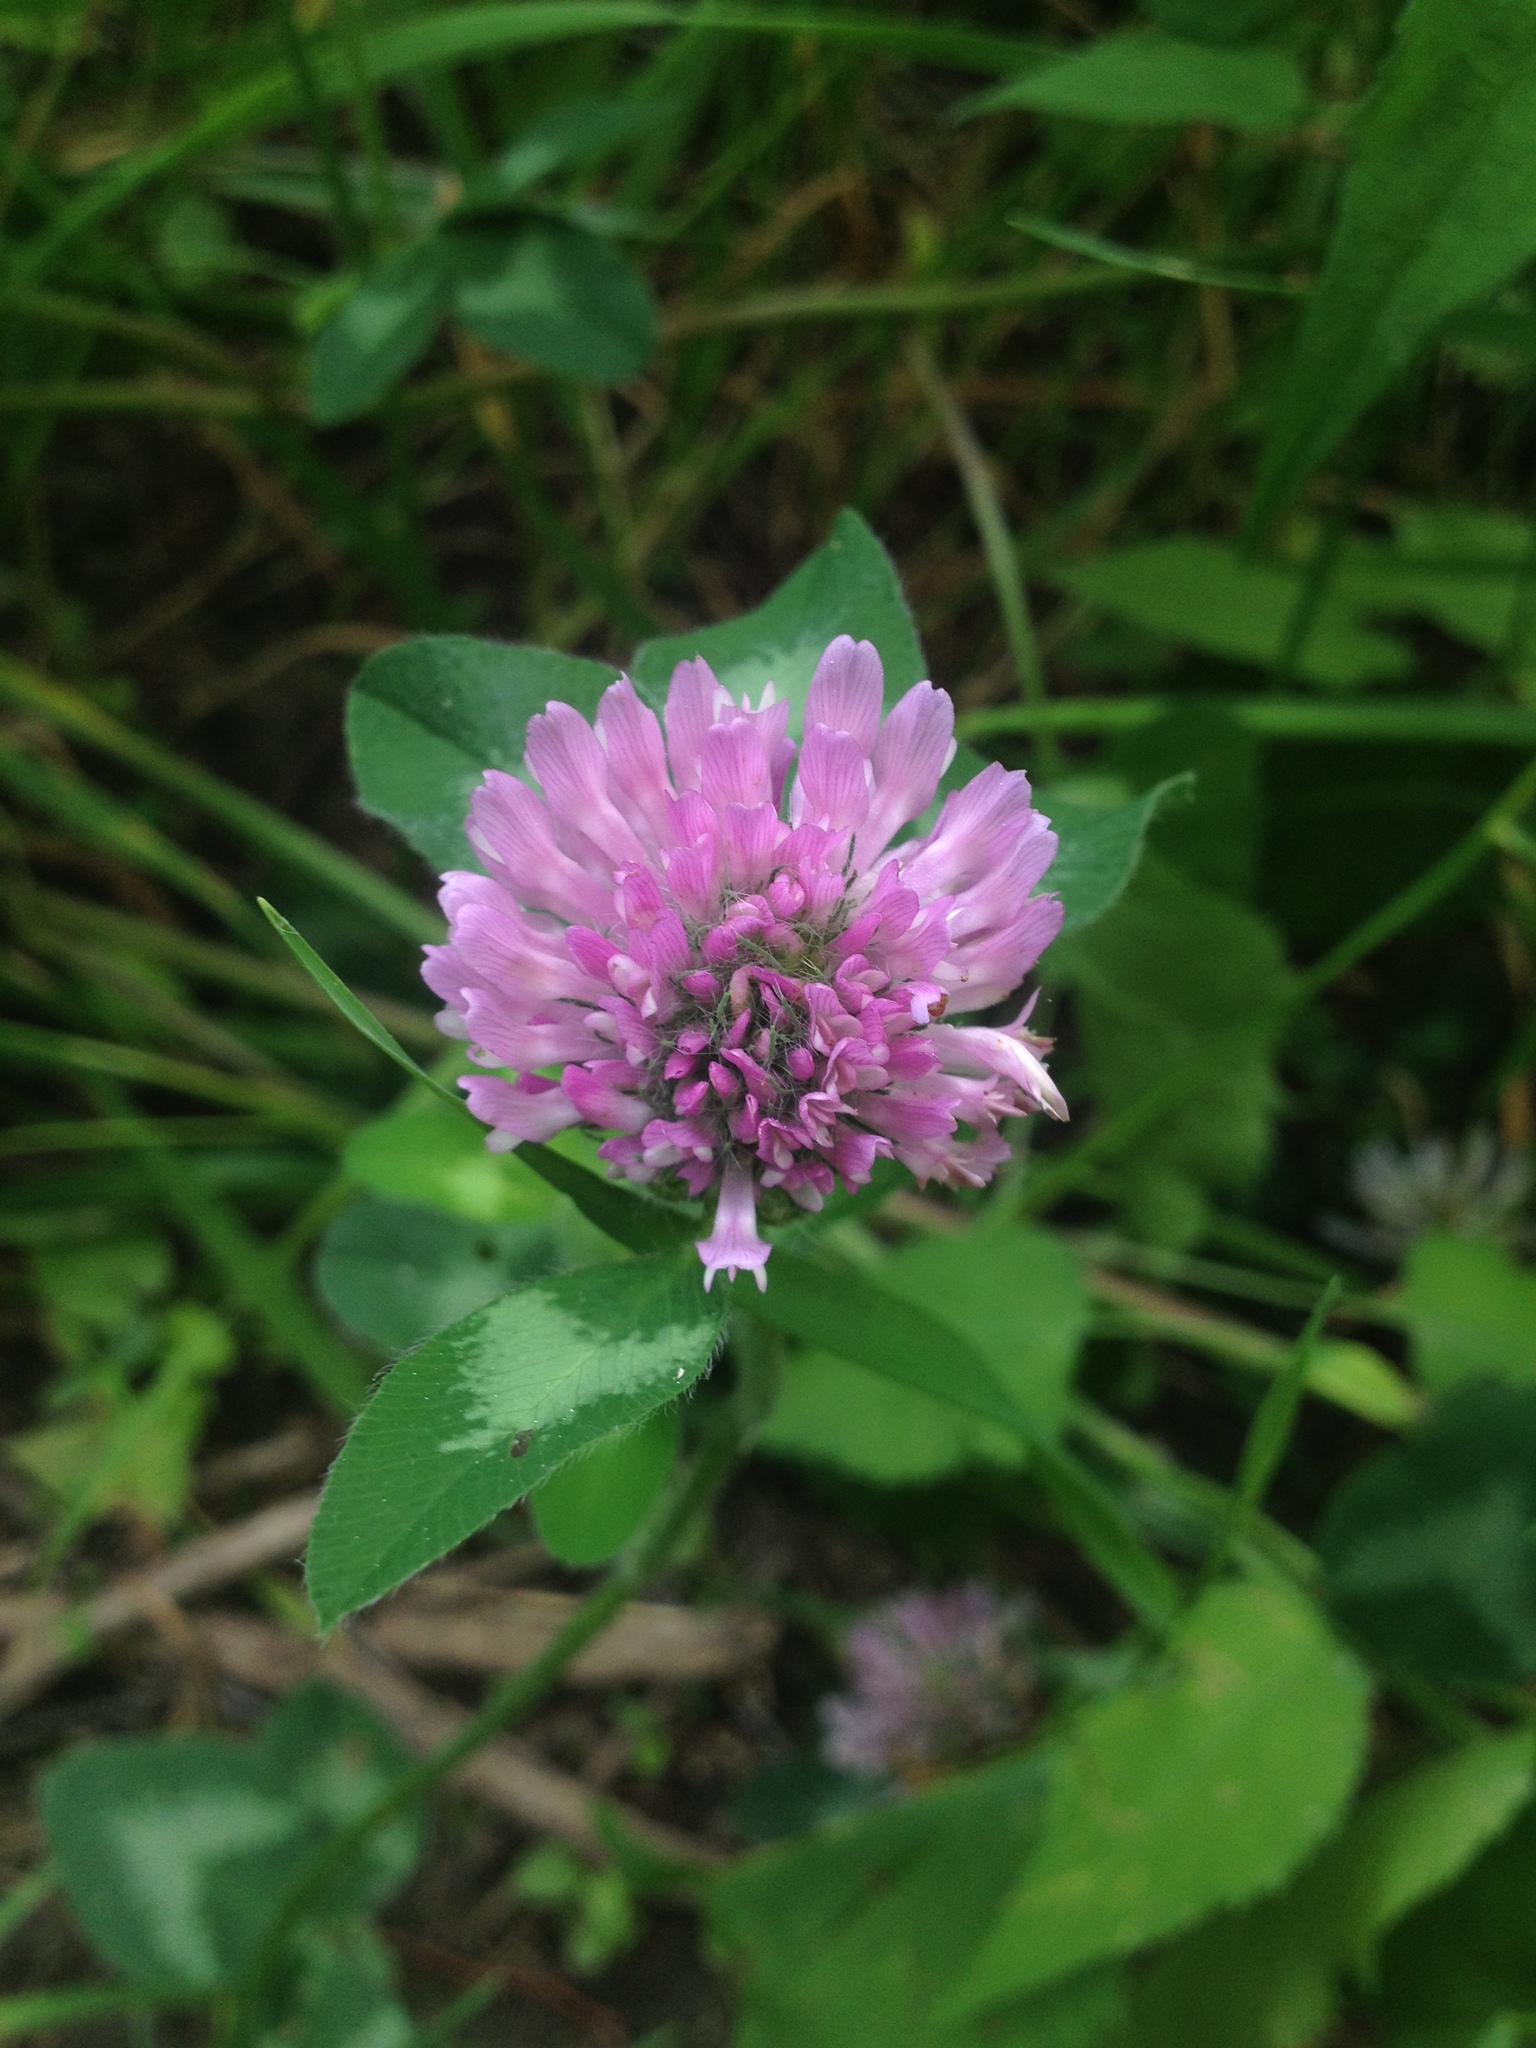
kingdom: Plantae
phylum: Tracheophyta
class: Magnoliopsida
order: Fabales
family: Fabaceae
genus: Trifolium
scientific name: Trifolium pratense
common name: Red clover
